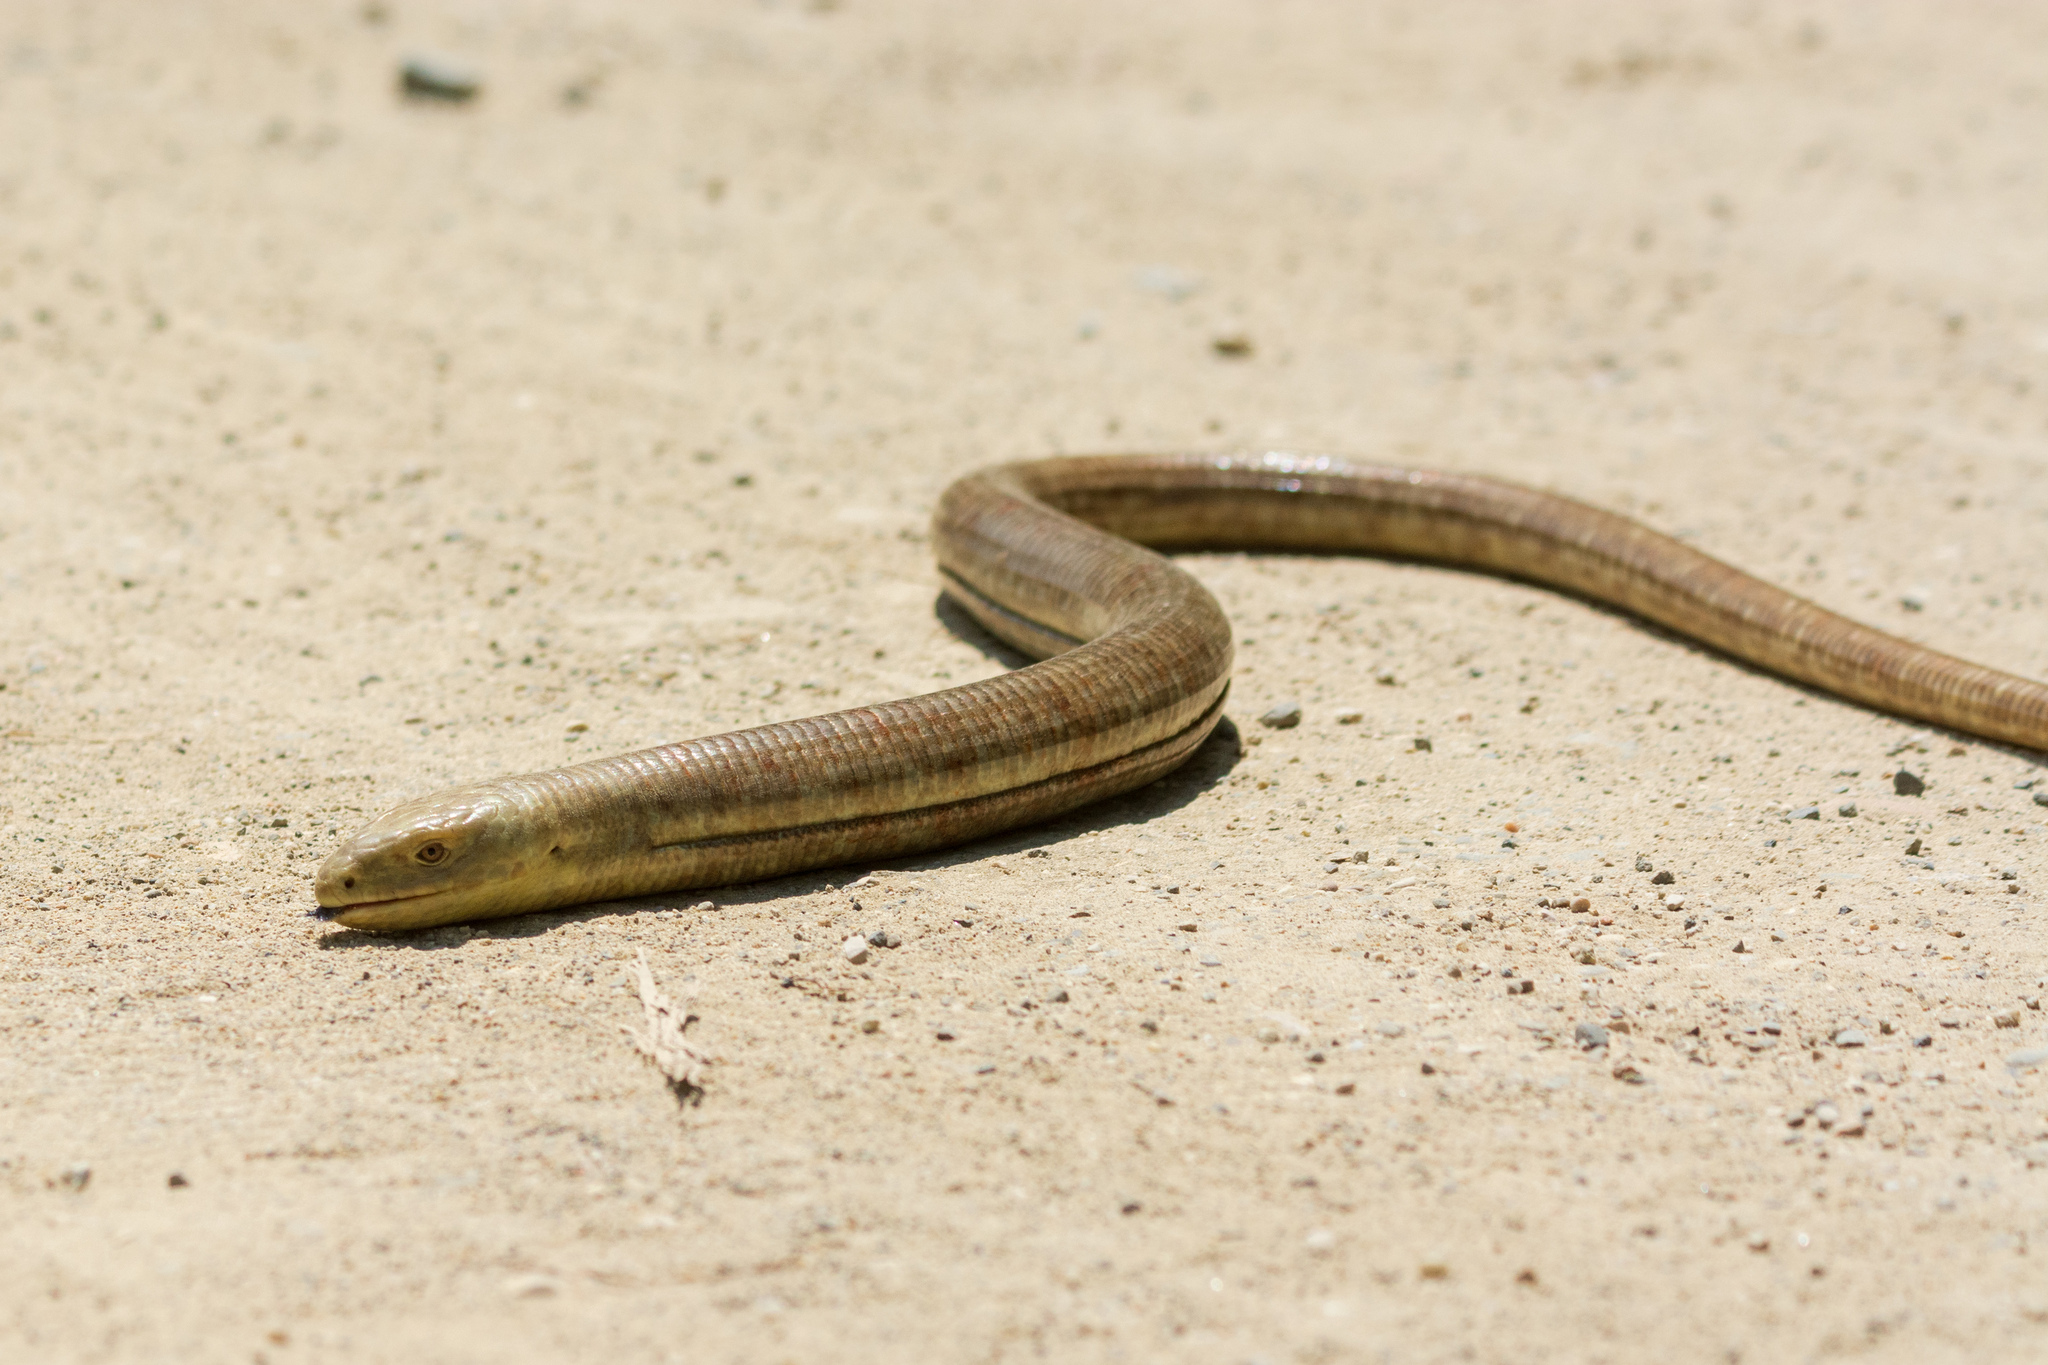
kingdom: Animalia
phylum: Chordata
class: Squamata
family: Anguidae
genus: Pseudopus
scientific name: Pseudopus apodus
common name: European glass lizard
